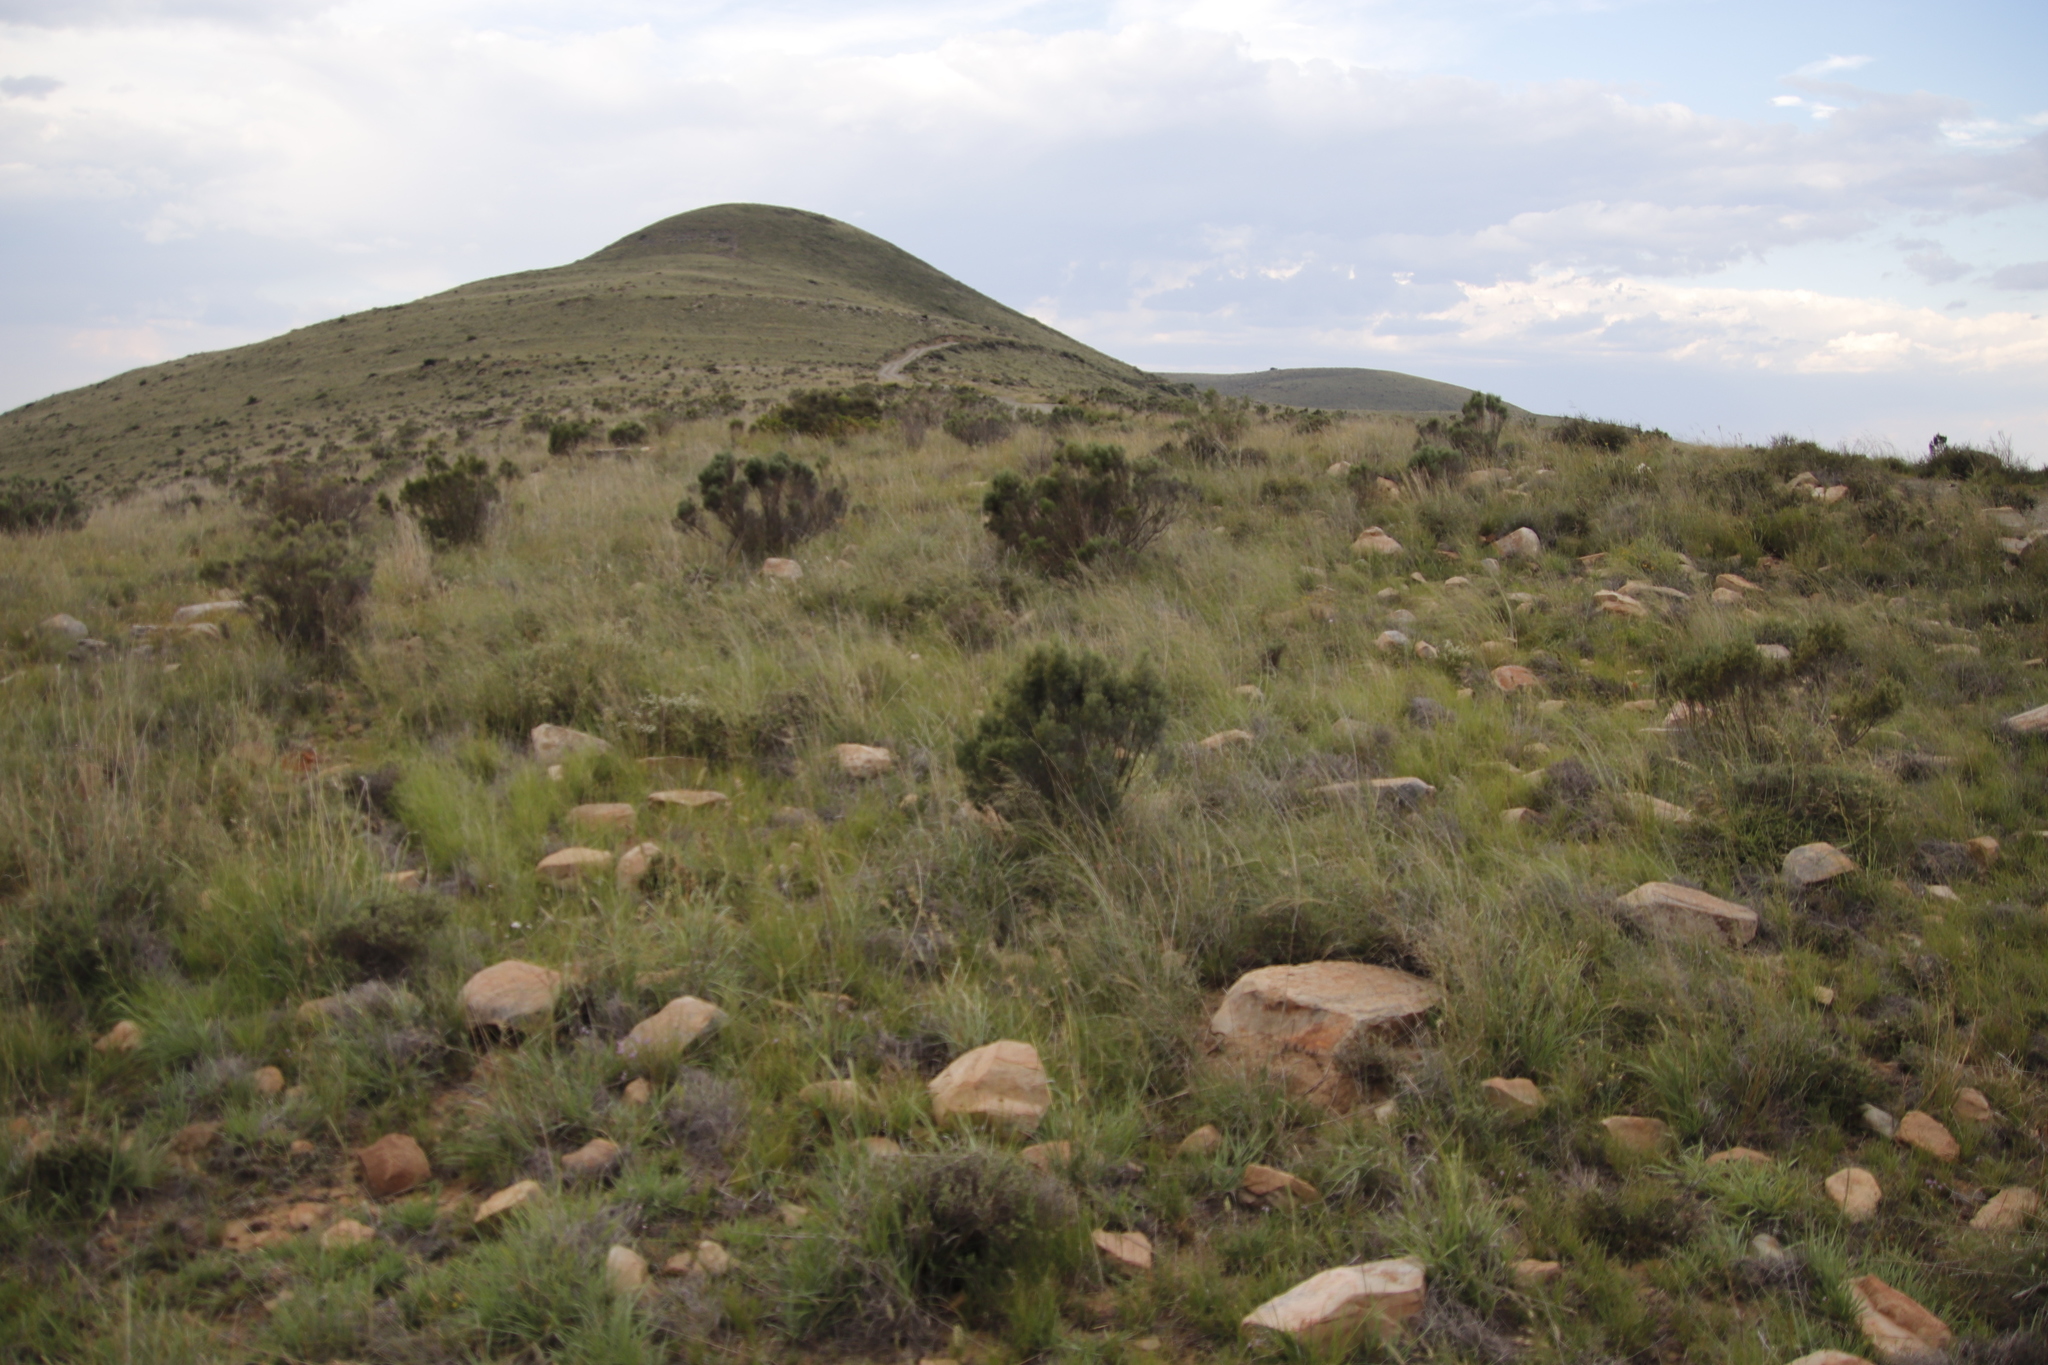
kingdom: Plantae
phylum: Tracheophyta
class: Magnoliopsida
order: Asterales
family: Asteraceae
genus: Dicerothamnus
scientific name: Dicerothamnus rhinocerotis
